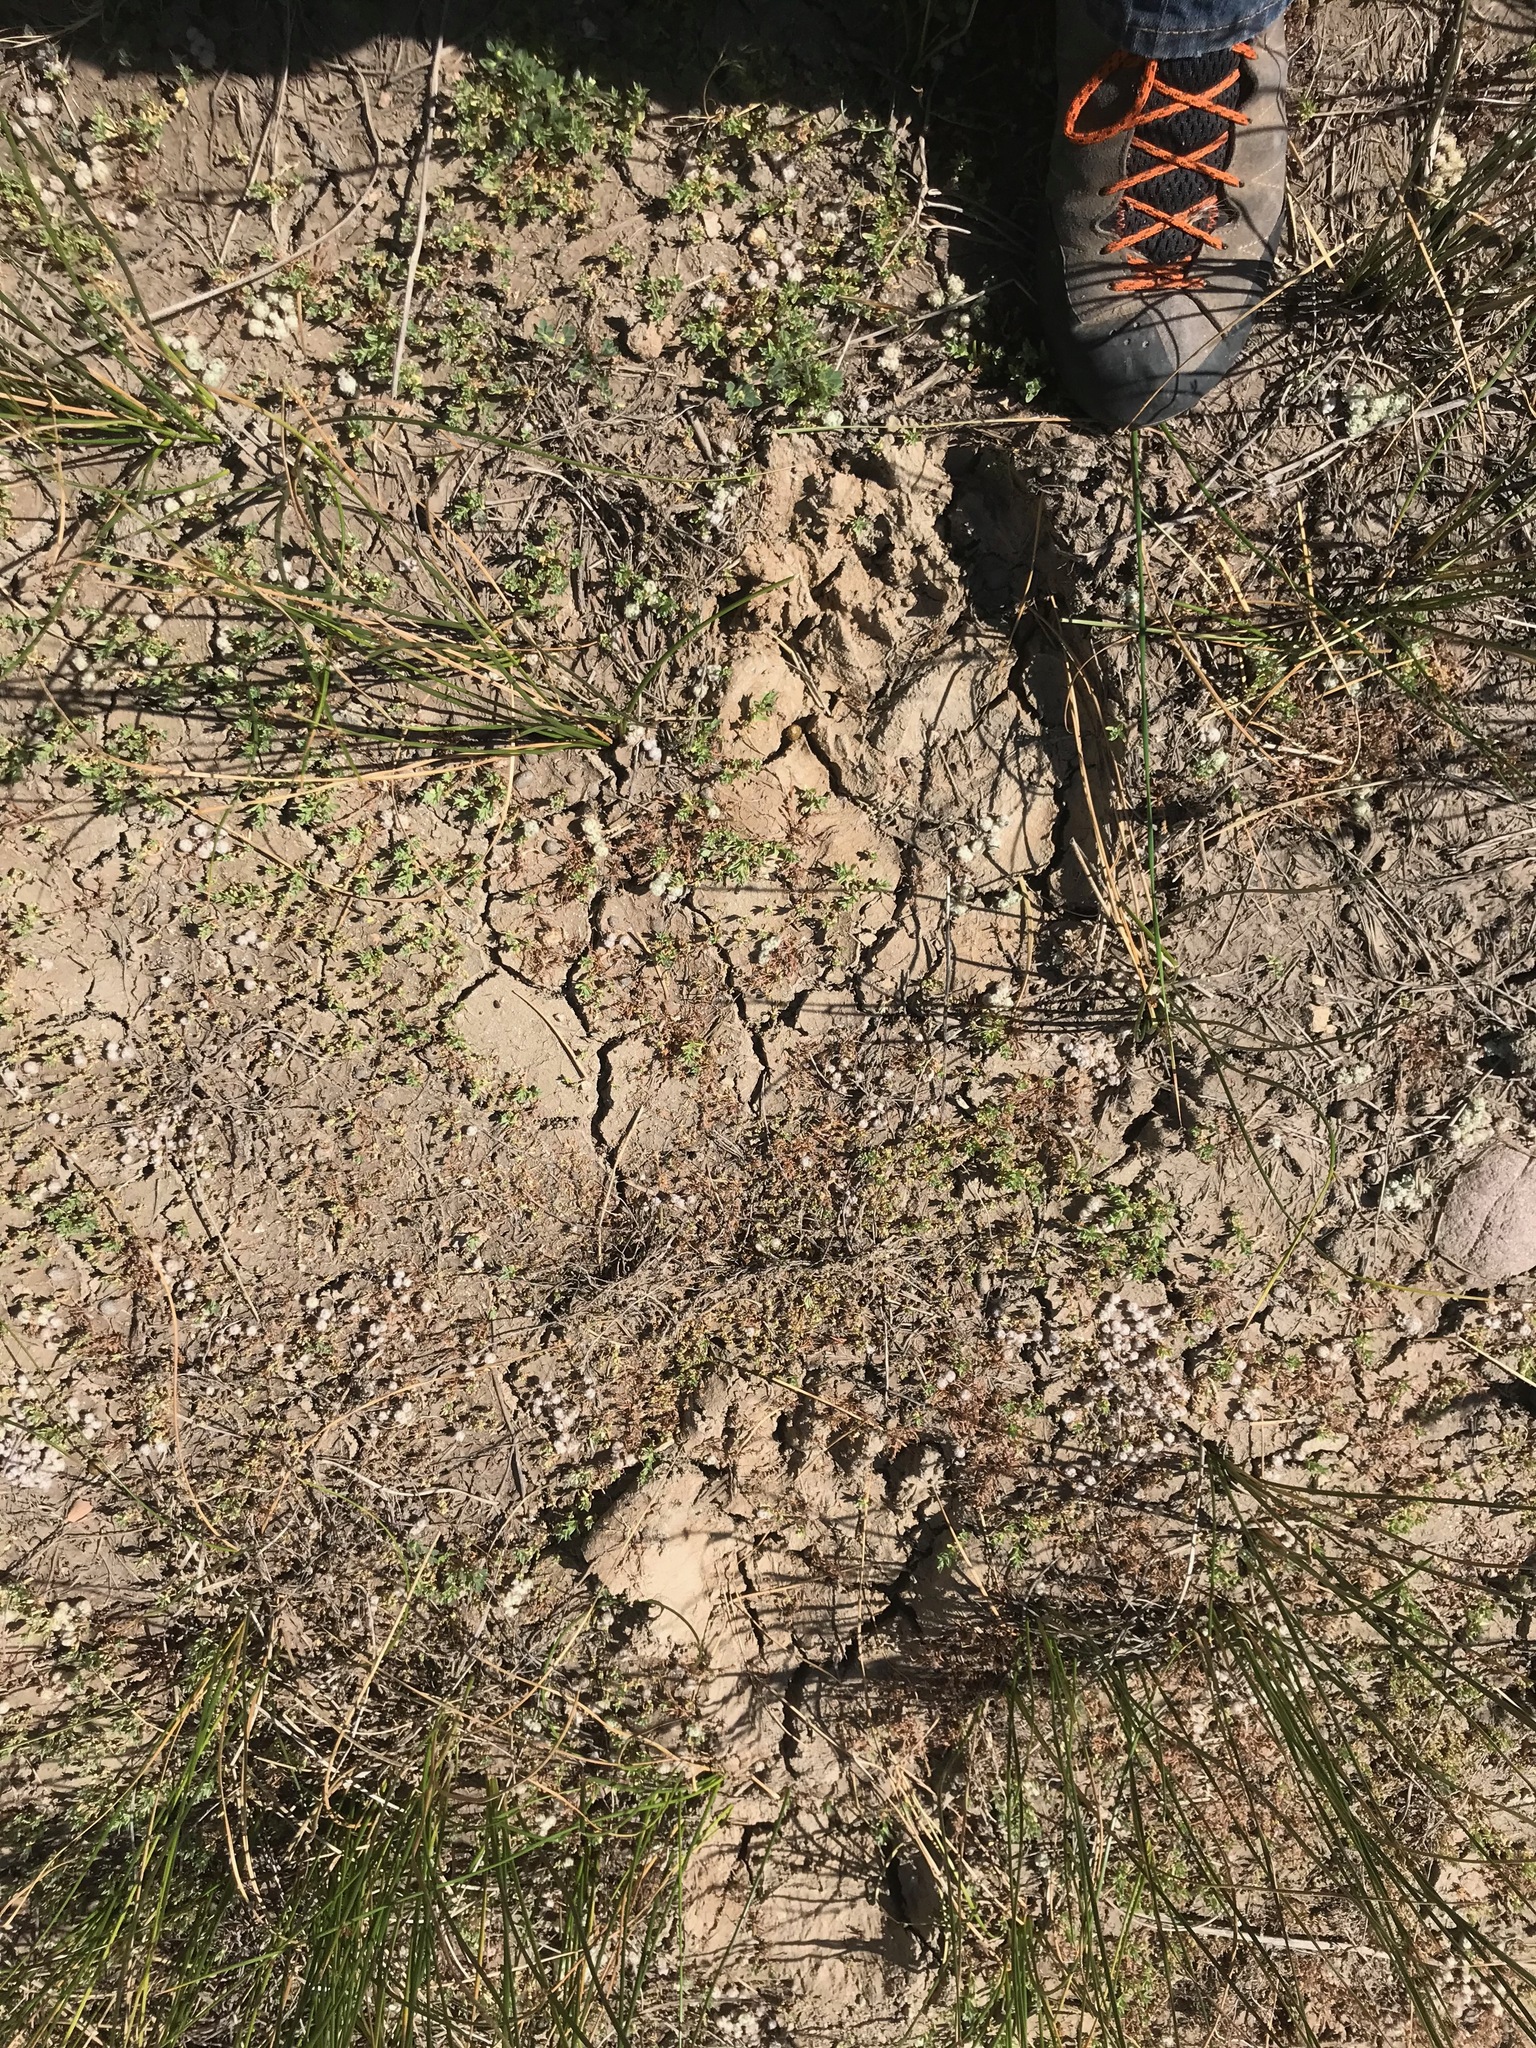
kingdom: Animalia
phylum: Chordata
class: Mammalia
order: Carnivora
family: Ursidae
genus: Ursus
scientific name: Ursus americanus
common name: American black bear
